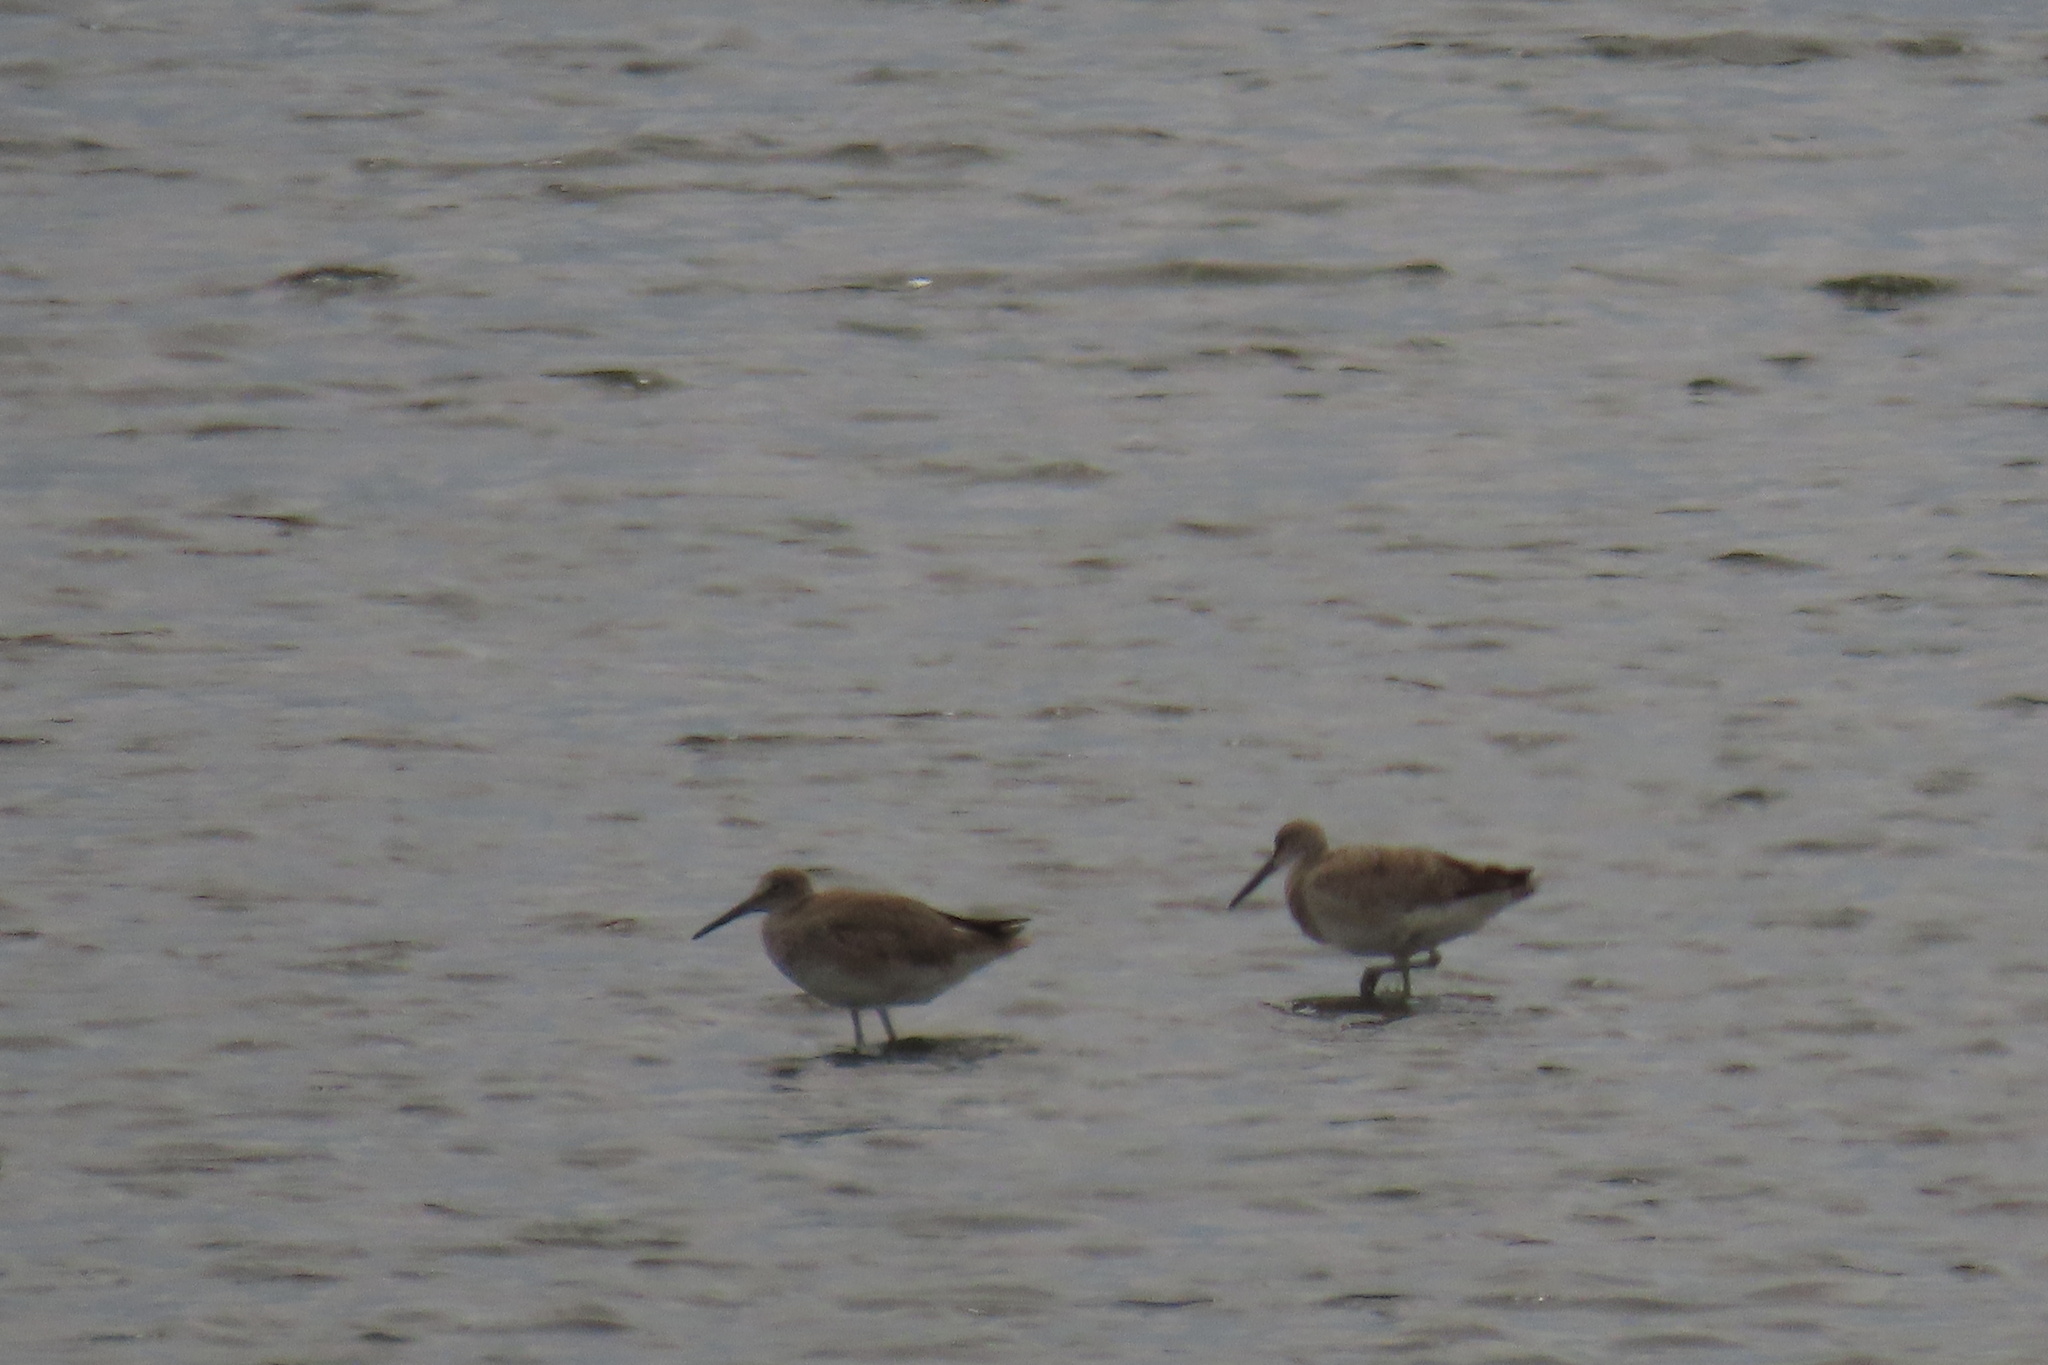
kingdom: Animalia
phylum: Chordata
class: Aves
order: Charadriiformes
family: Scolopacidae
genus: Tringa
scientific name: Tringa semipalmata
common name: Willet
